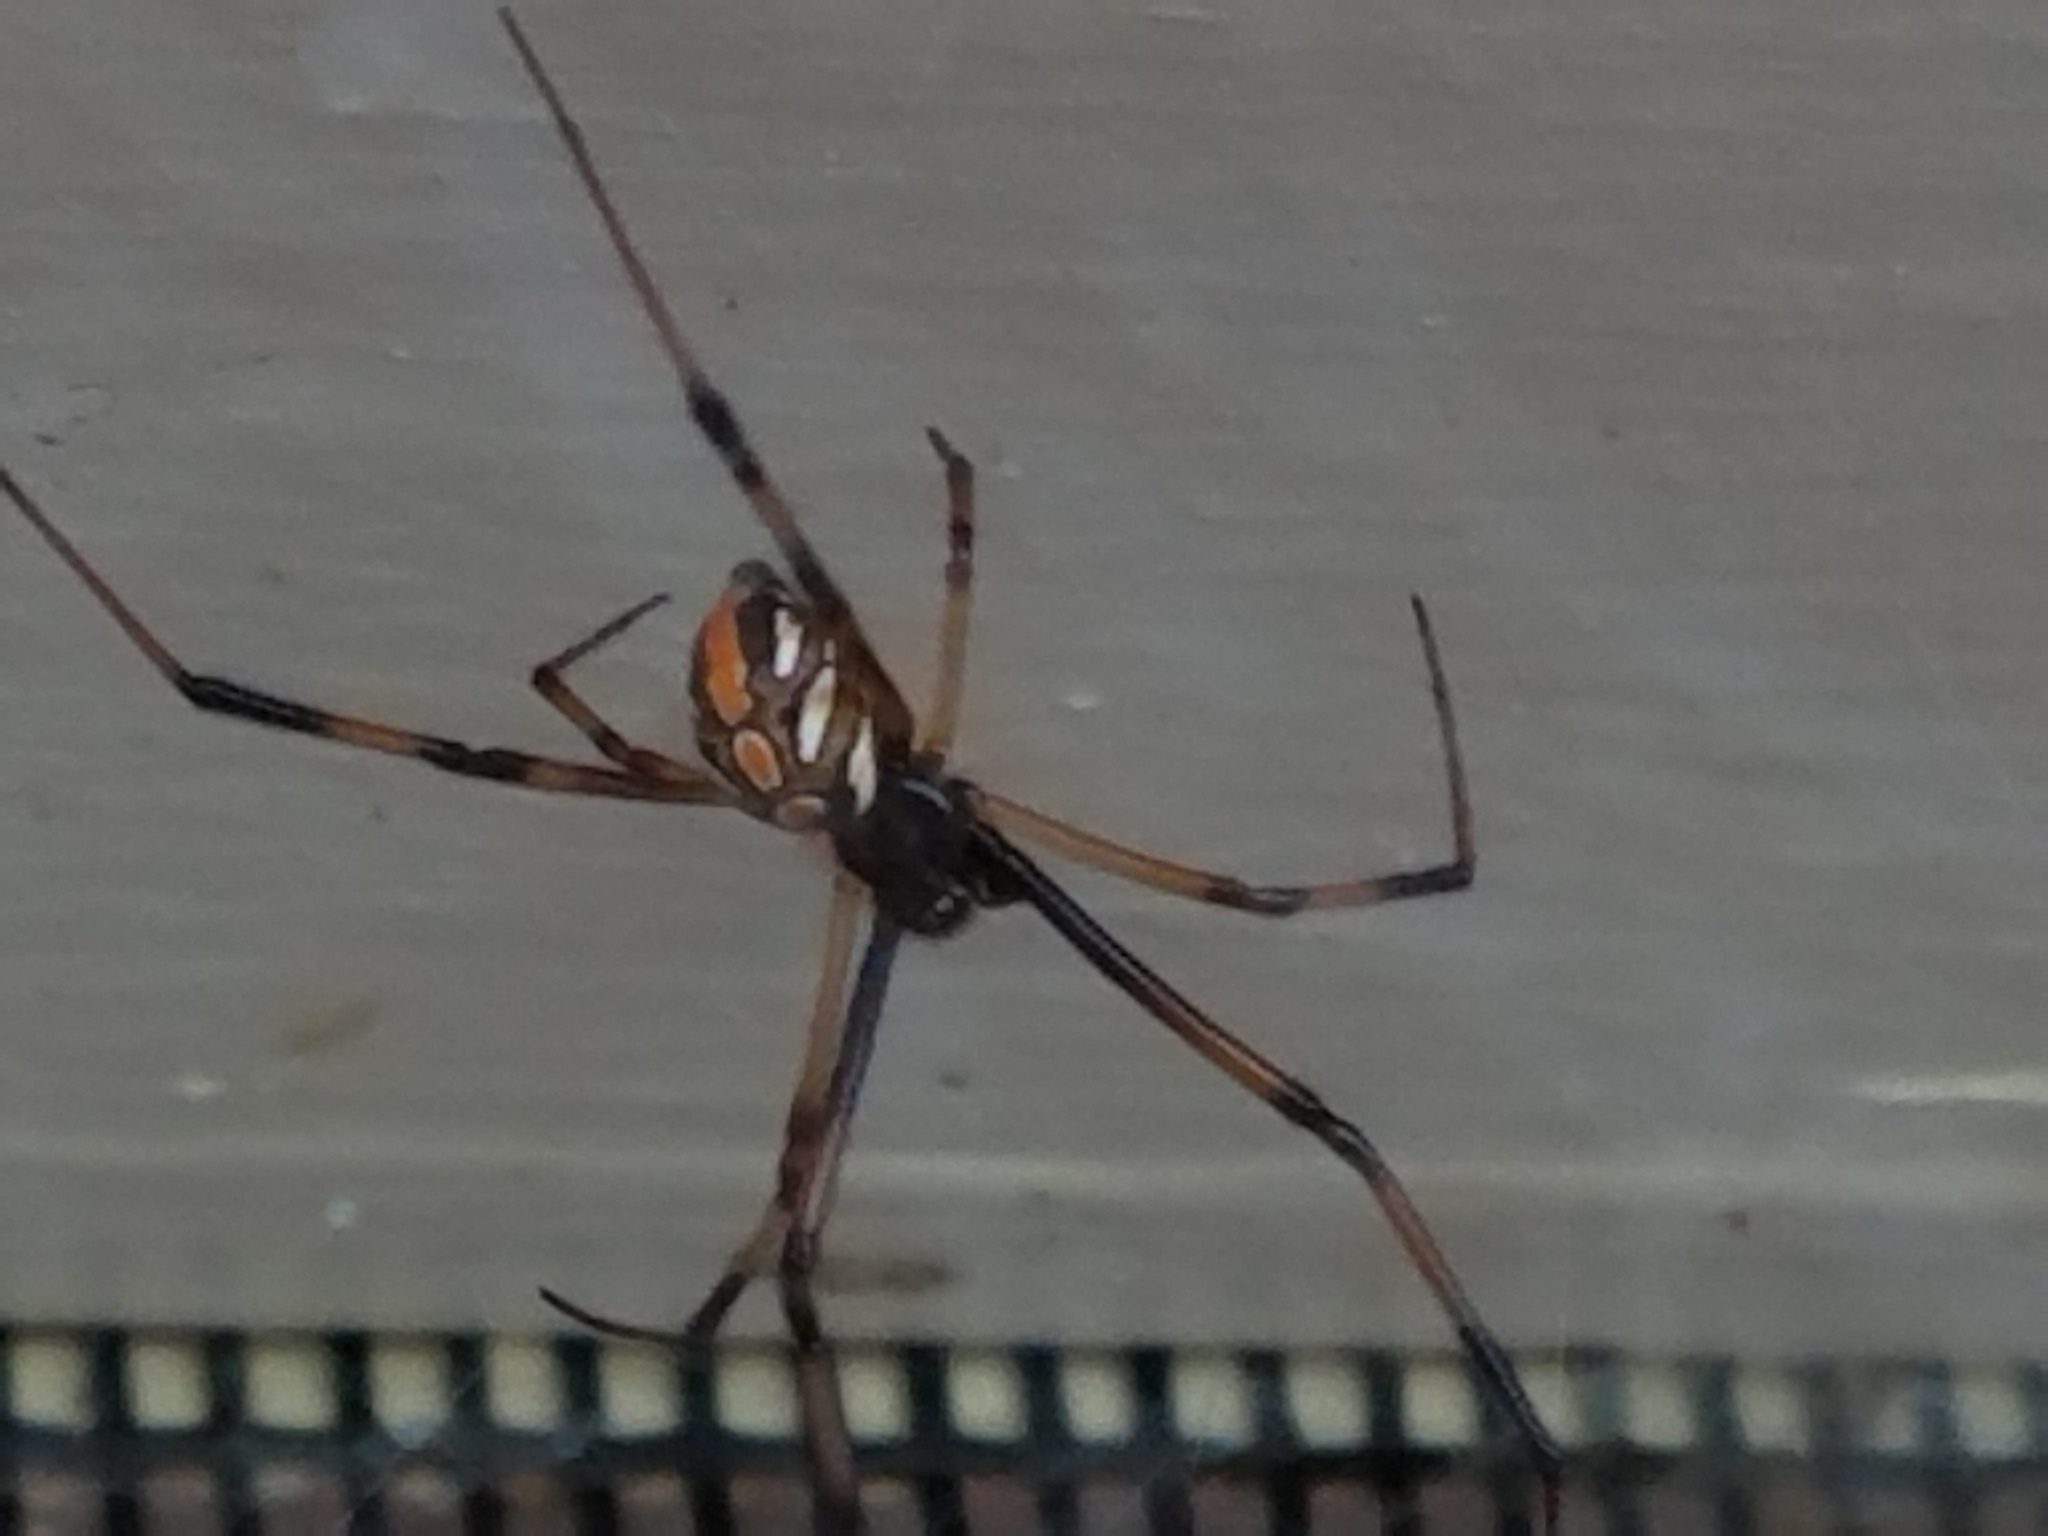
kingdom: Animalia
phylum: Arthropoda
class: Arachnida
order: Araneae
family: Theridiidae
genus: Latrodectus
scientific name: Latrodectus hesperus
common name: Western black widow
